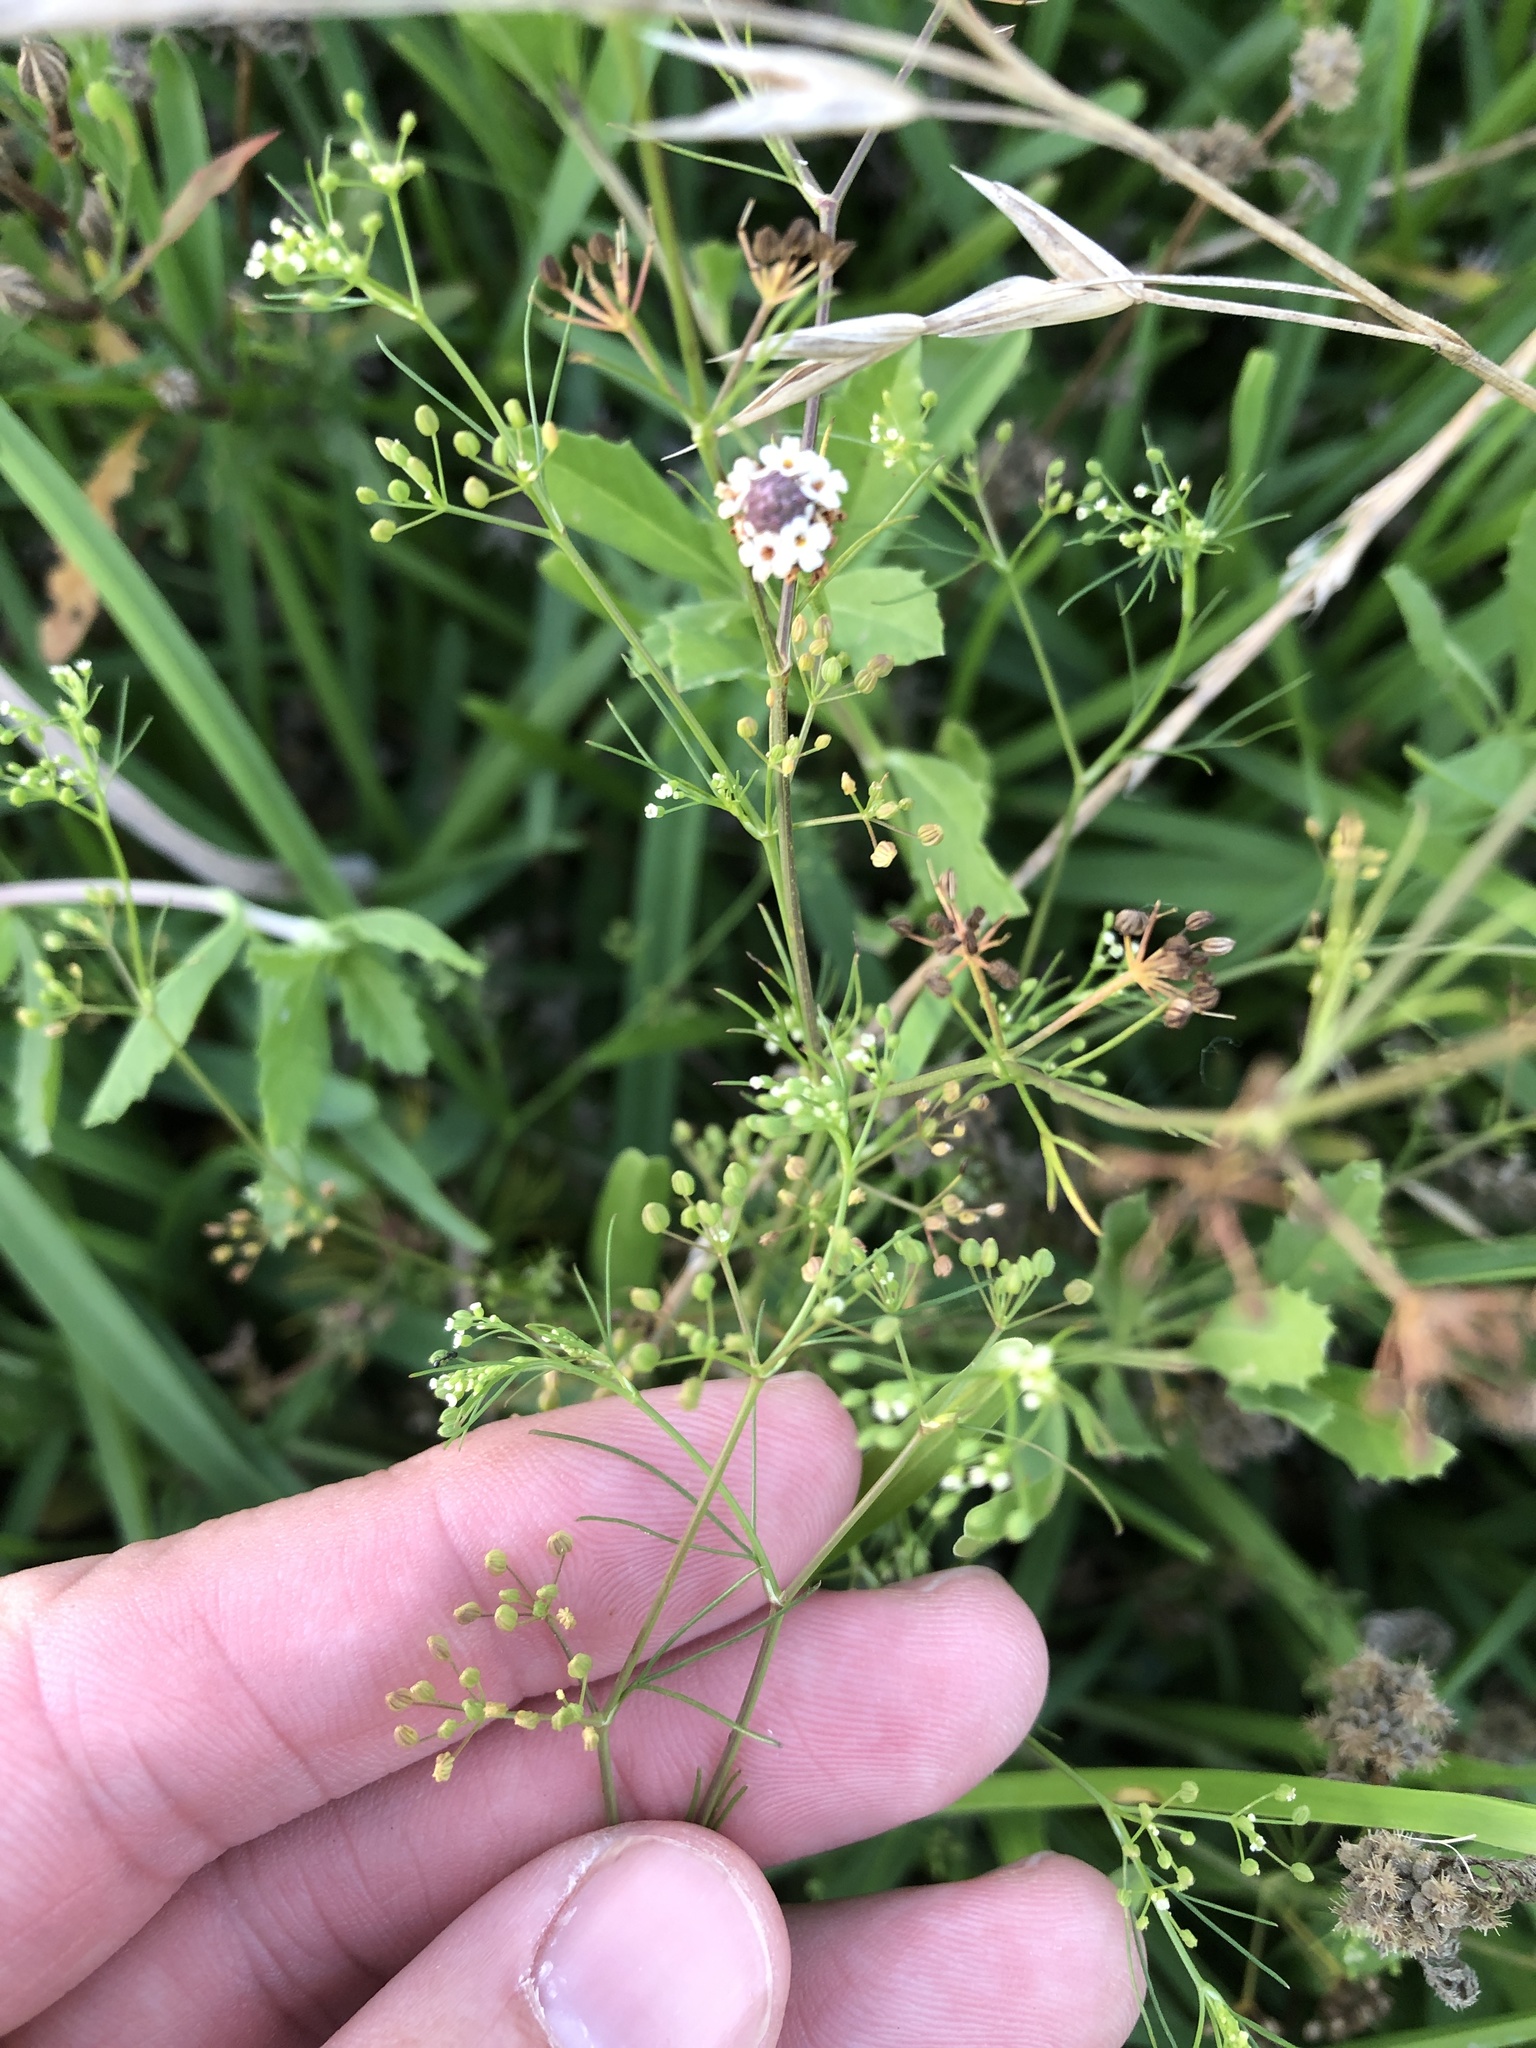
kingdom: Plantae
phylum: Tracheophyta
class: Magnoliopsida
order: Apiales
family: Apiaceae
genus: Cyclospermum
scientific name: Cyclospermum leptophyllum
